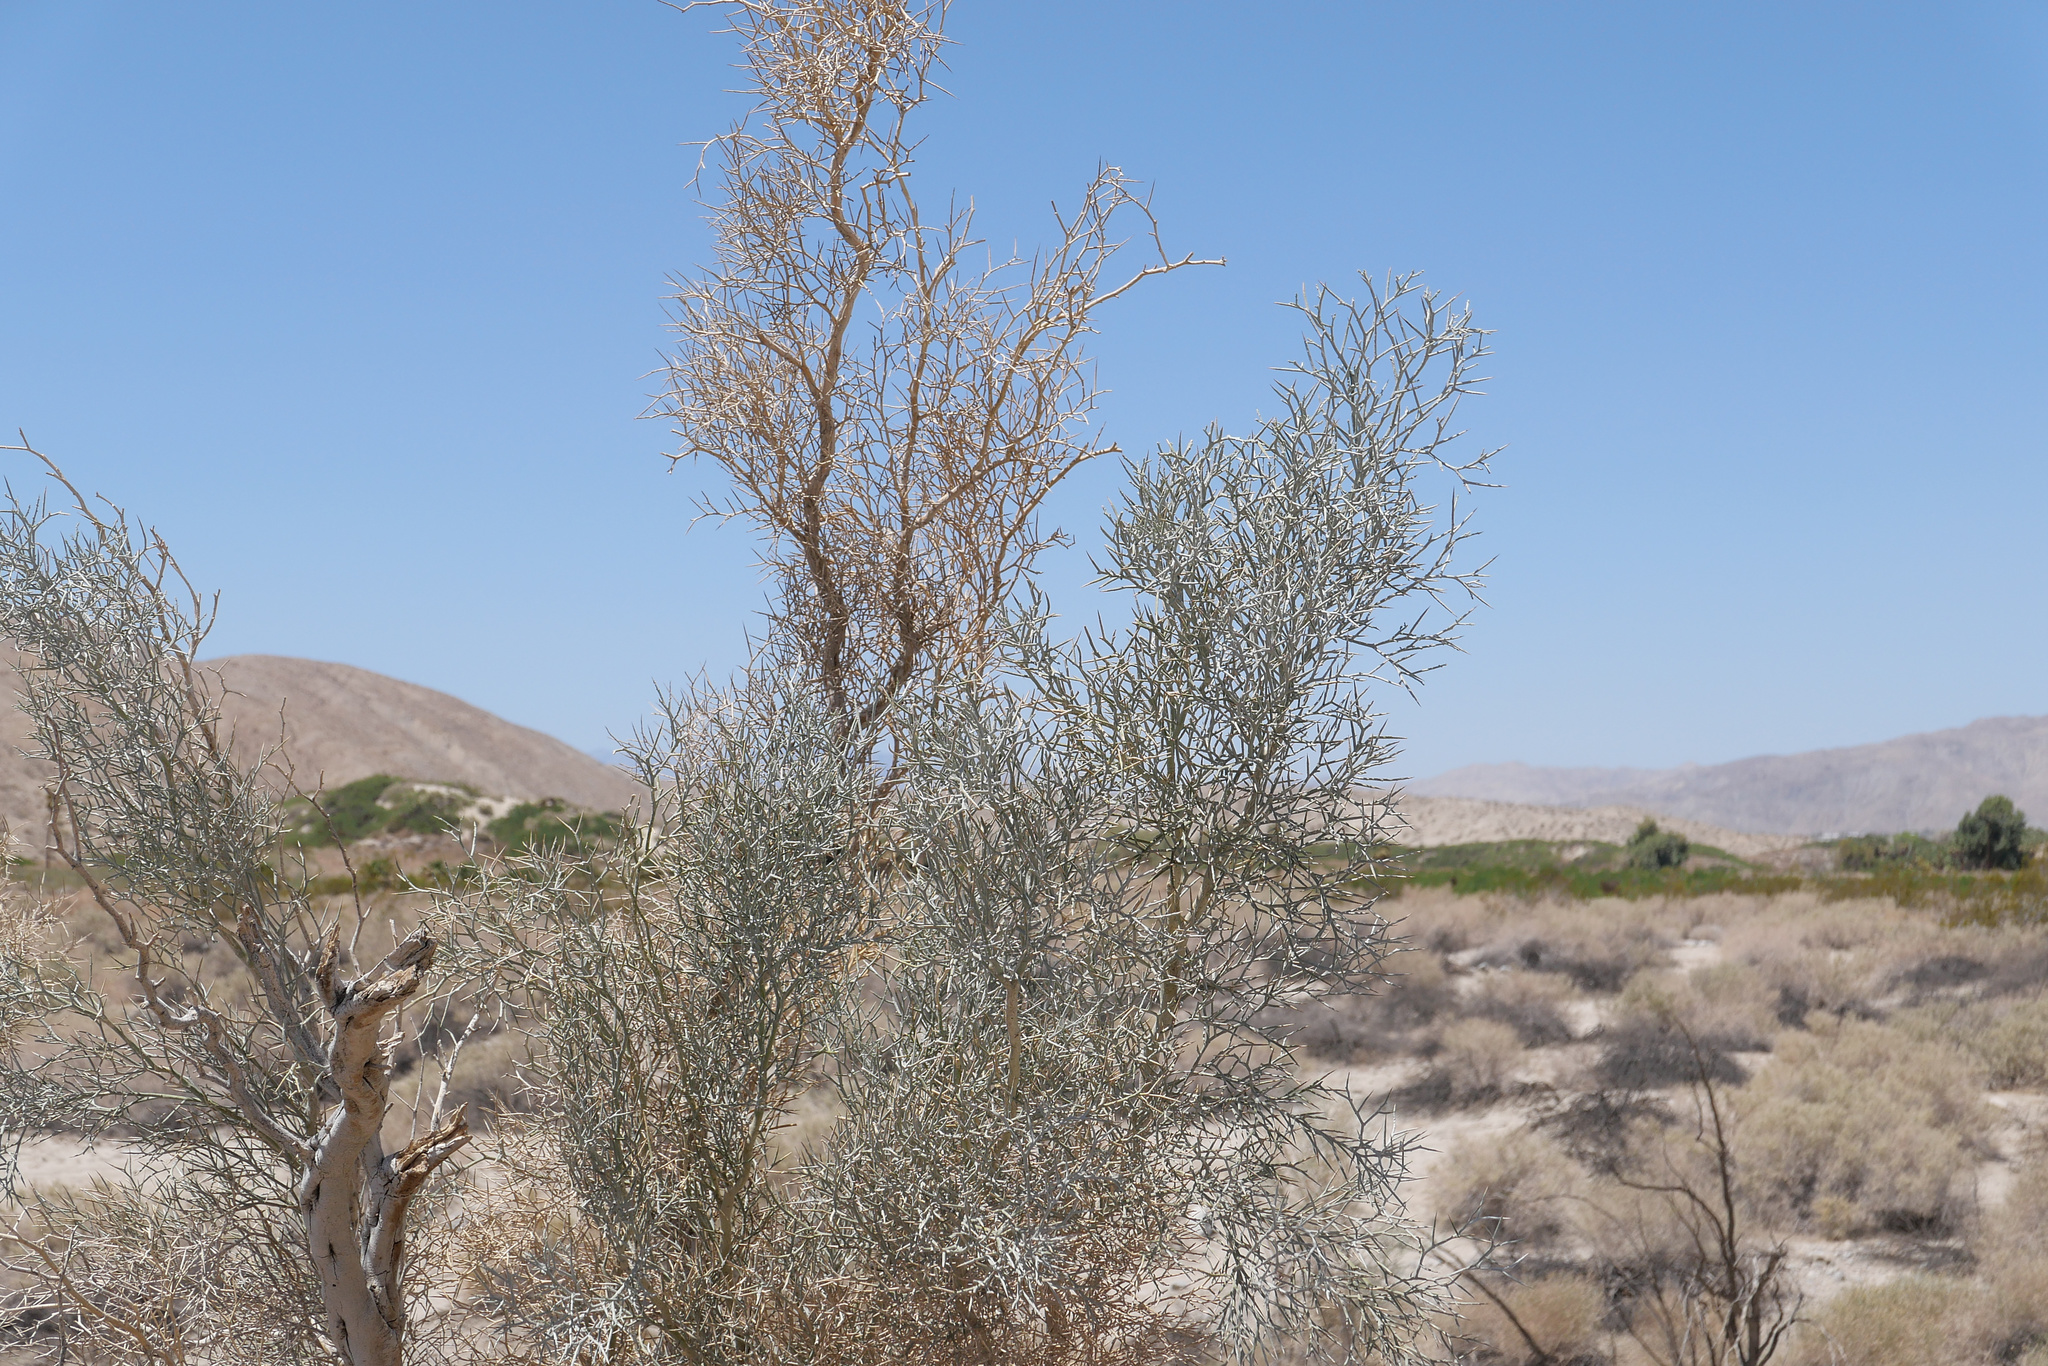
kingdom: Plantae
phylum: Tracheophyta
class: Magnoliopsida
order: Fabales
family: Fabaceae
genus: Psorothamnus
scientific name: Psorothamnus spinosus
